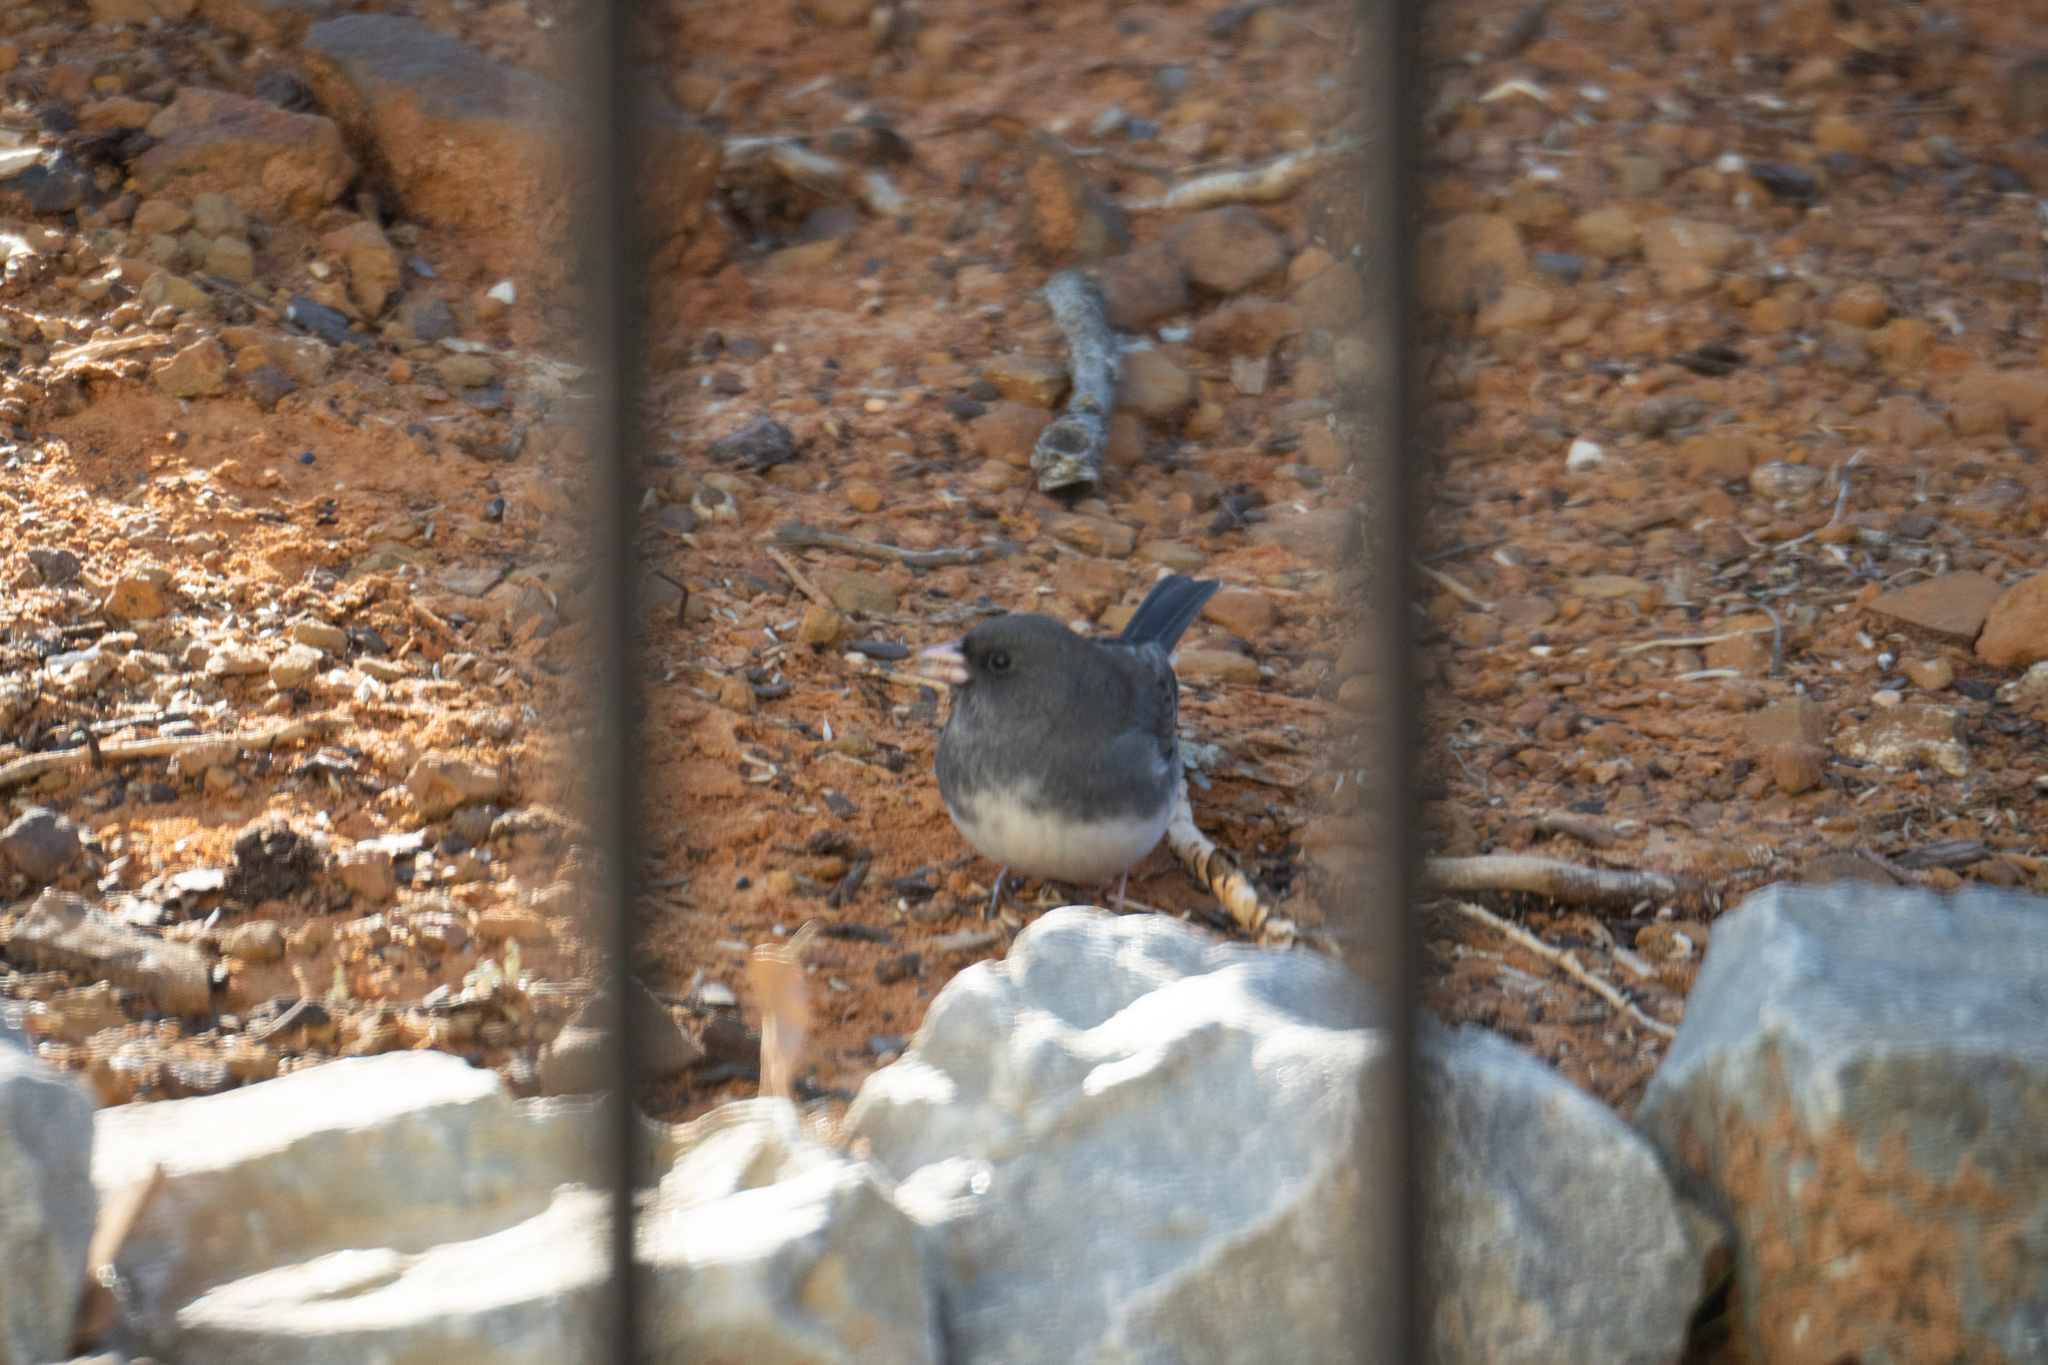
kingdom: Animalia
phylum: Chordata
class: Aves
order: Passeriformes
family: Passerellidae
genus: Junco
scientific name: Junco hyemalis
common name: Dark-eyed junco
